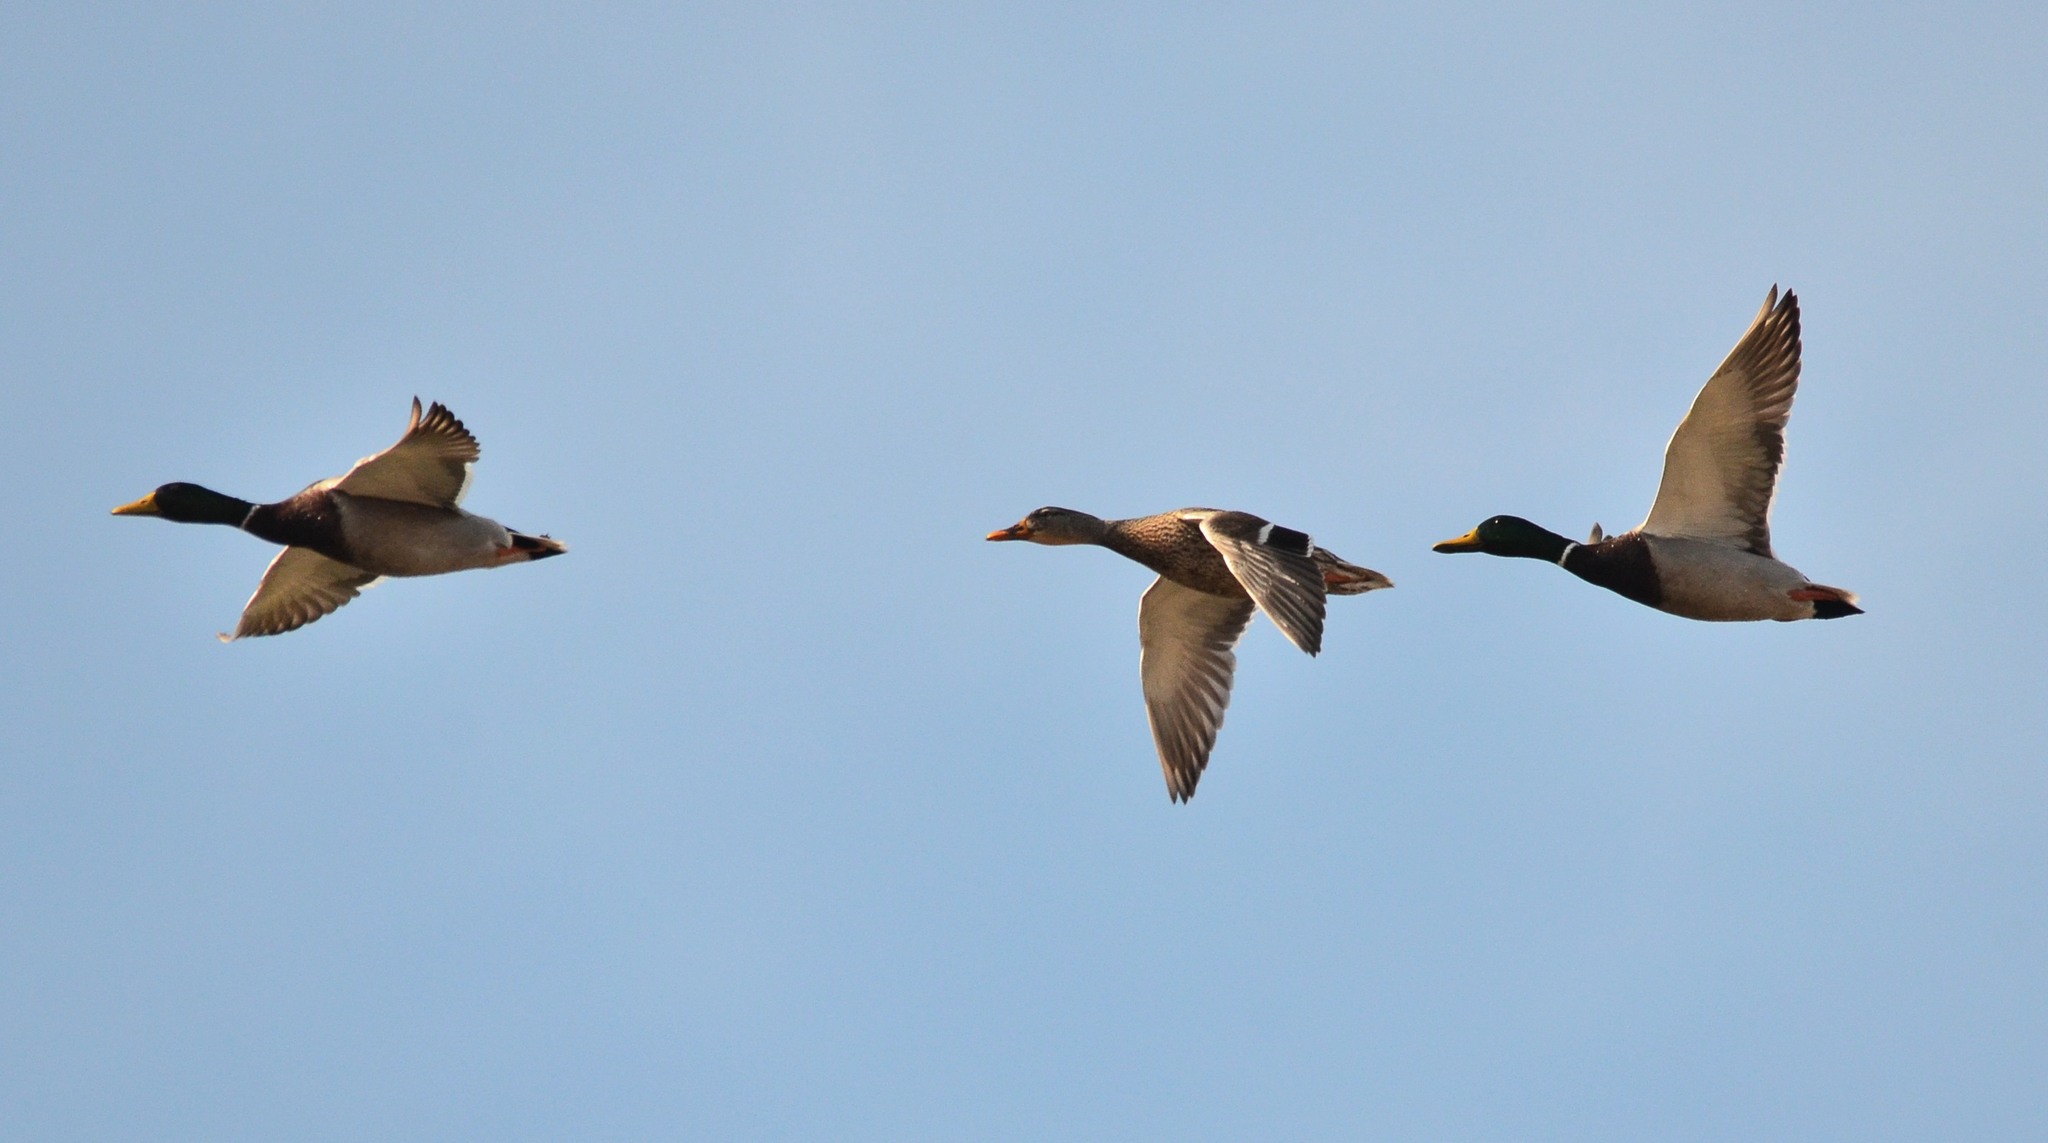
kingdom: Animalia
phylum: Chordata
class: Aves
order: Anseriformes
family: Anatidae
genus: Anas
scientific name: Anas platyrhynchos
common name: Mallard
